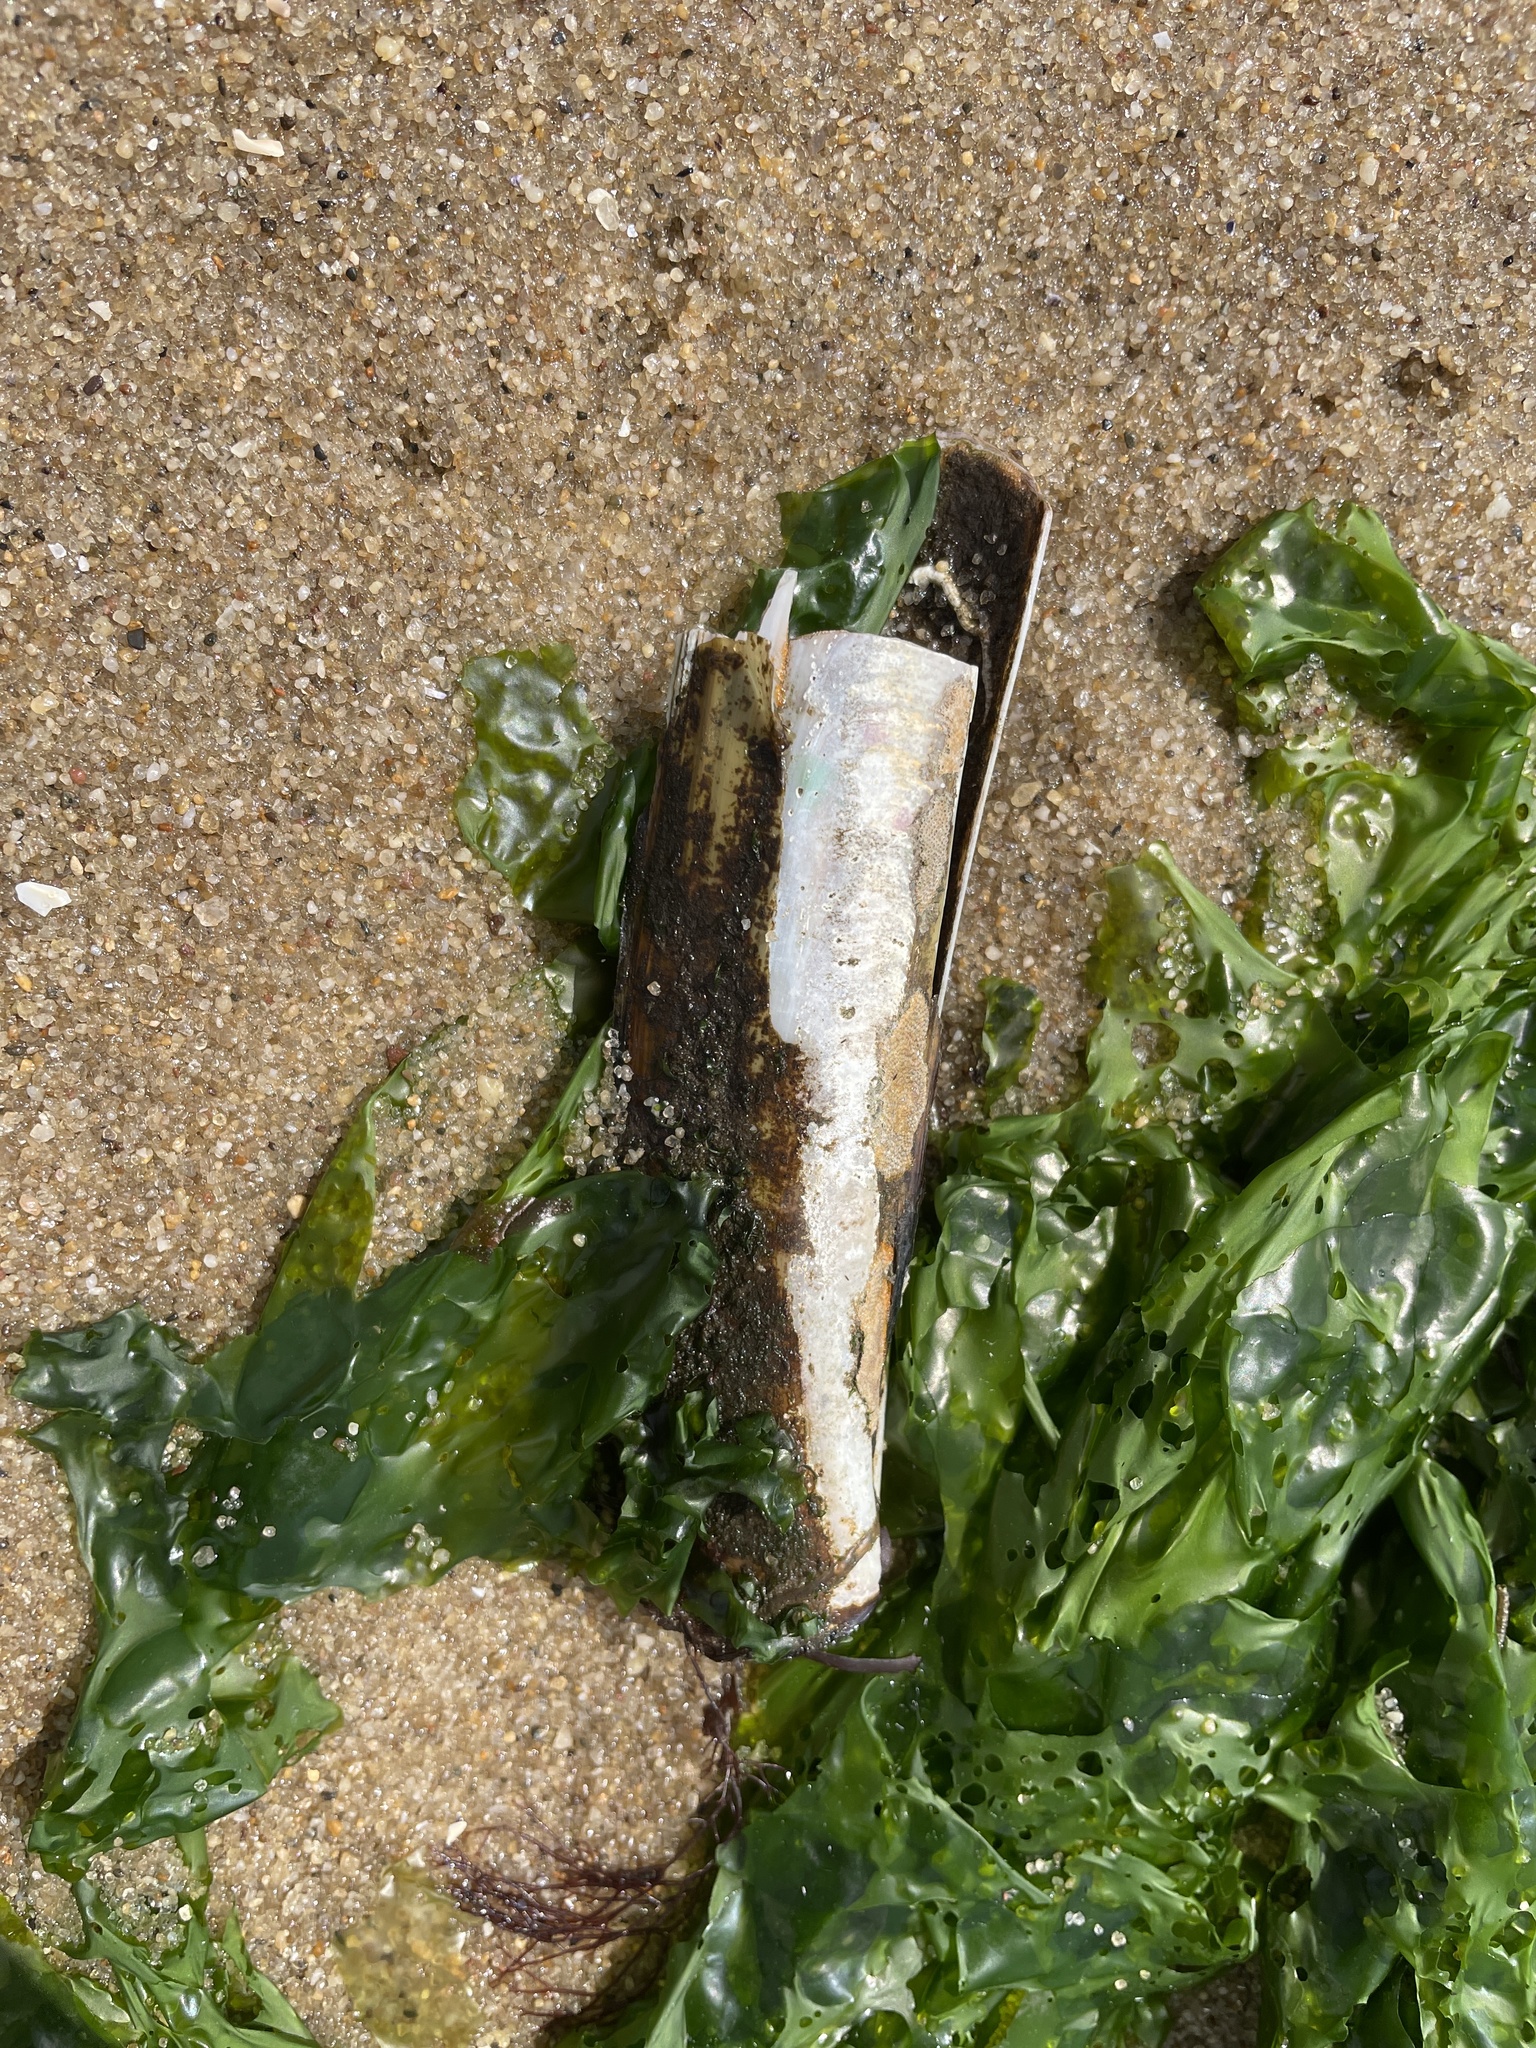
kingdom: Animalia
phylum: Mollusca
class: Bivalvia
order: Adapedonta
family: Pharidae
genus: Ensis
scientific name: Ensis leei
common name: American jack knife clam
